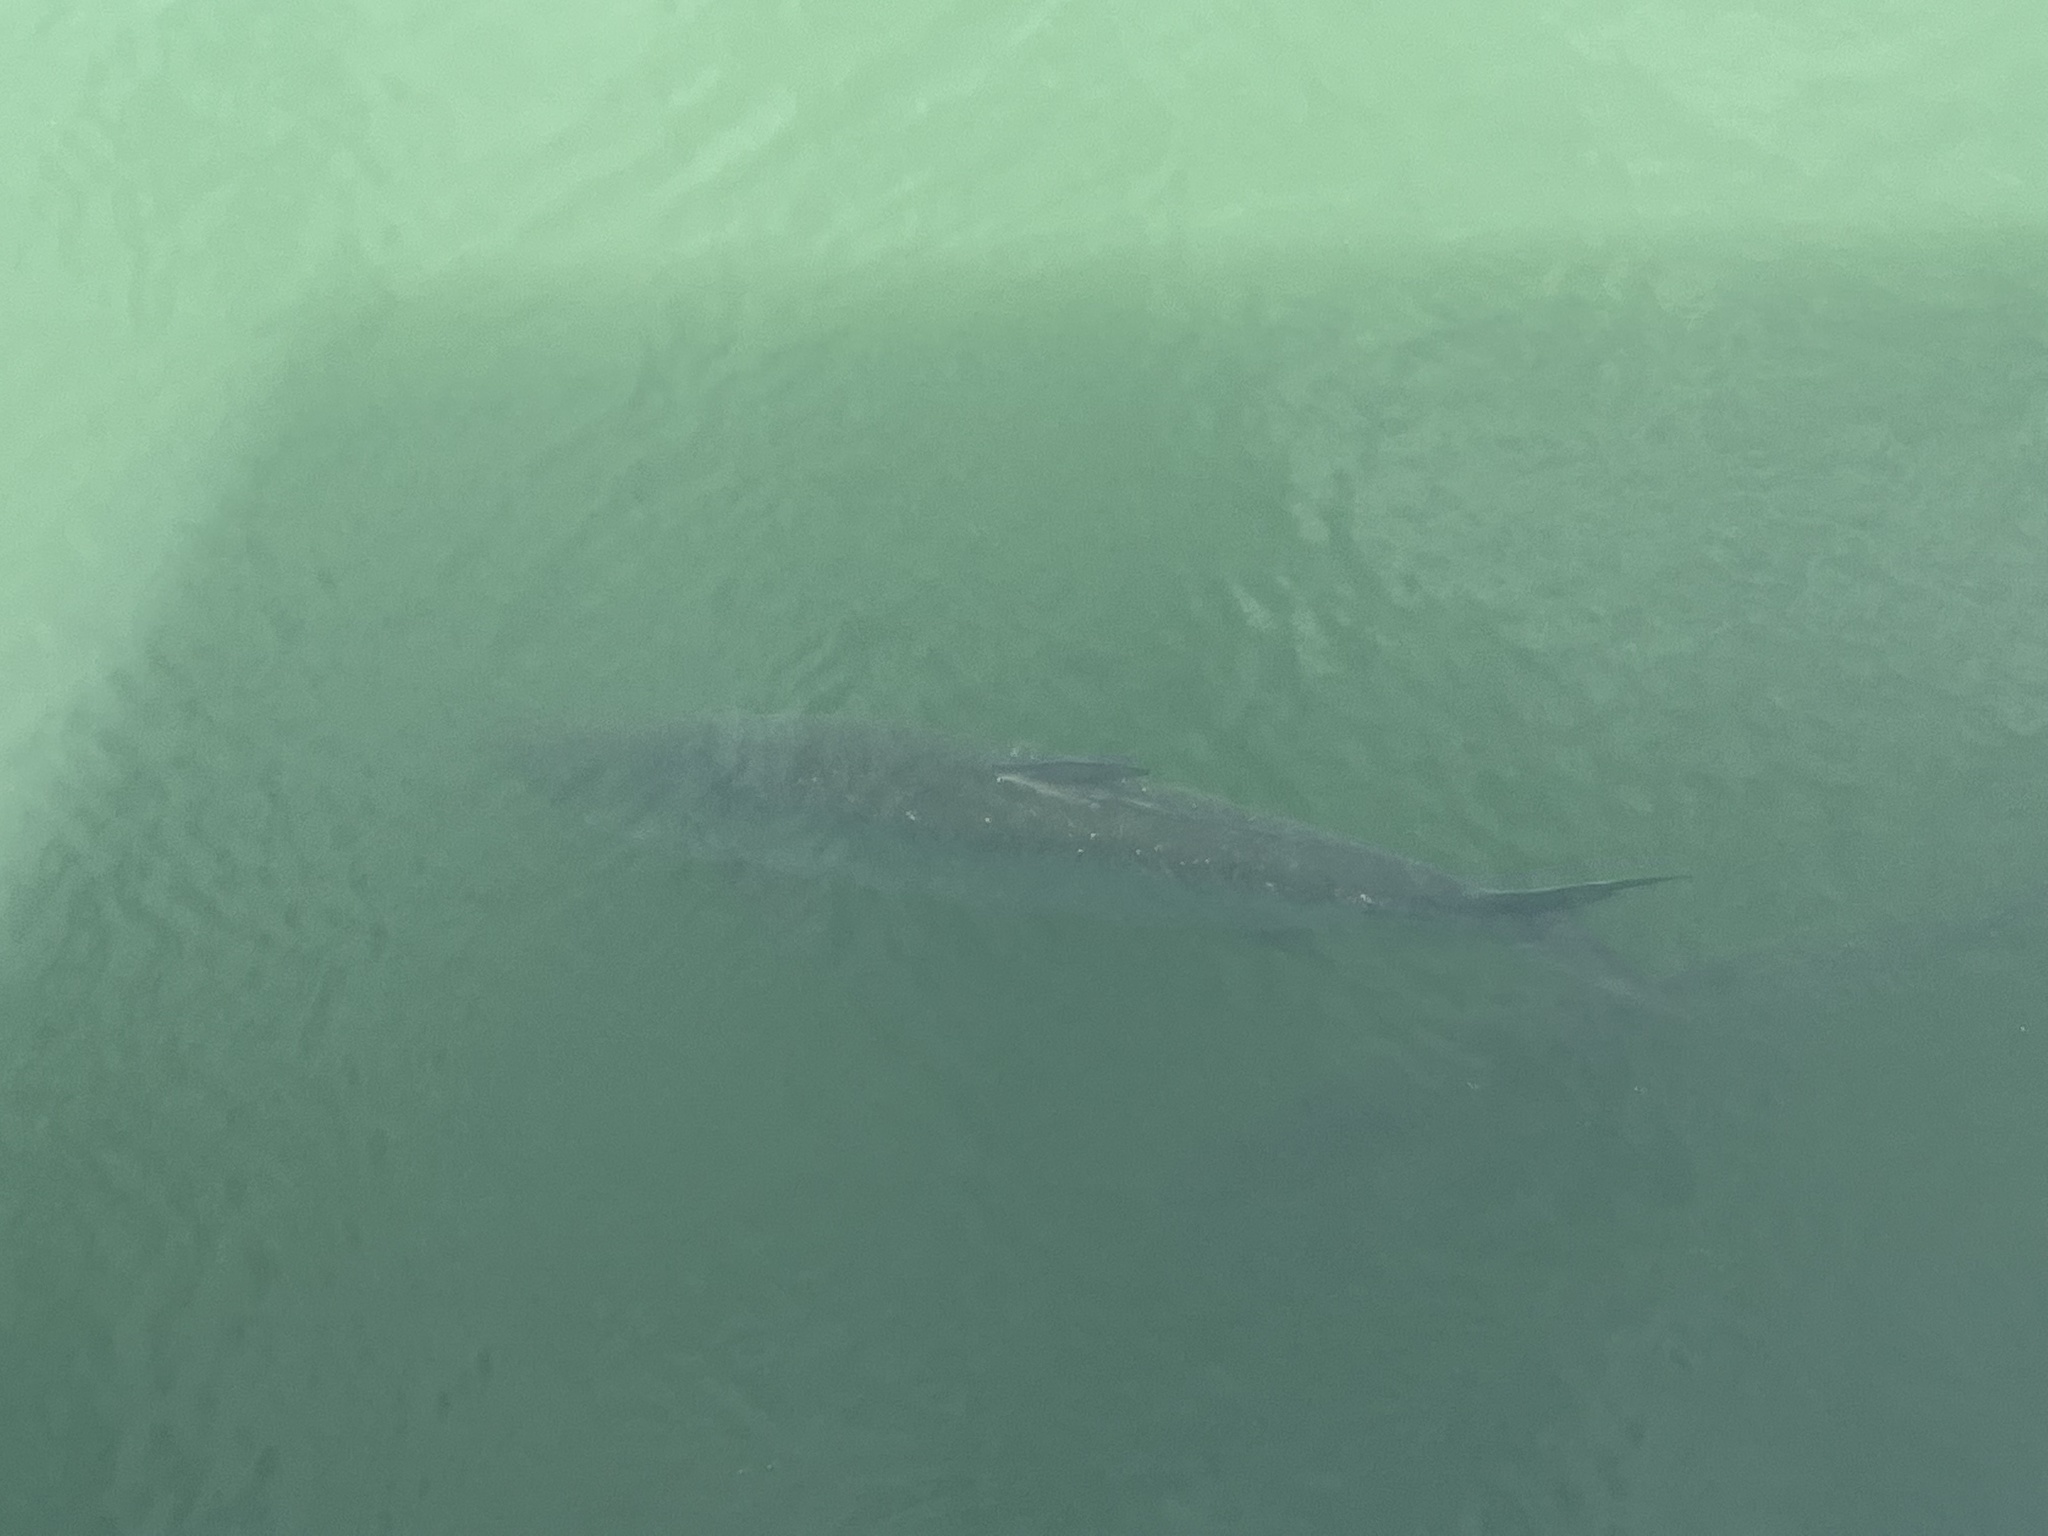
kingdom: Animalia
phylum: Chordata
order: Elopiformes
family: Megalopidae
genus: Megalops
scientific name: Megalops atlanticus
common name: Tarpon
